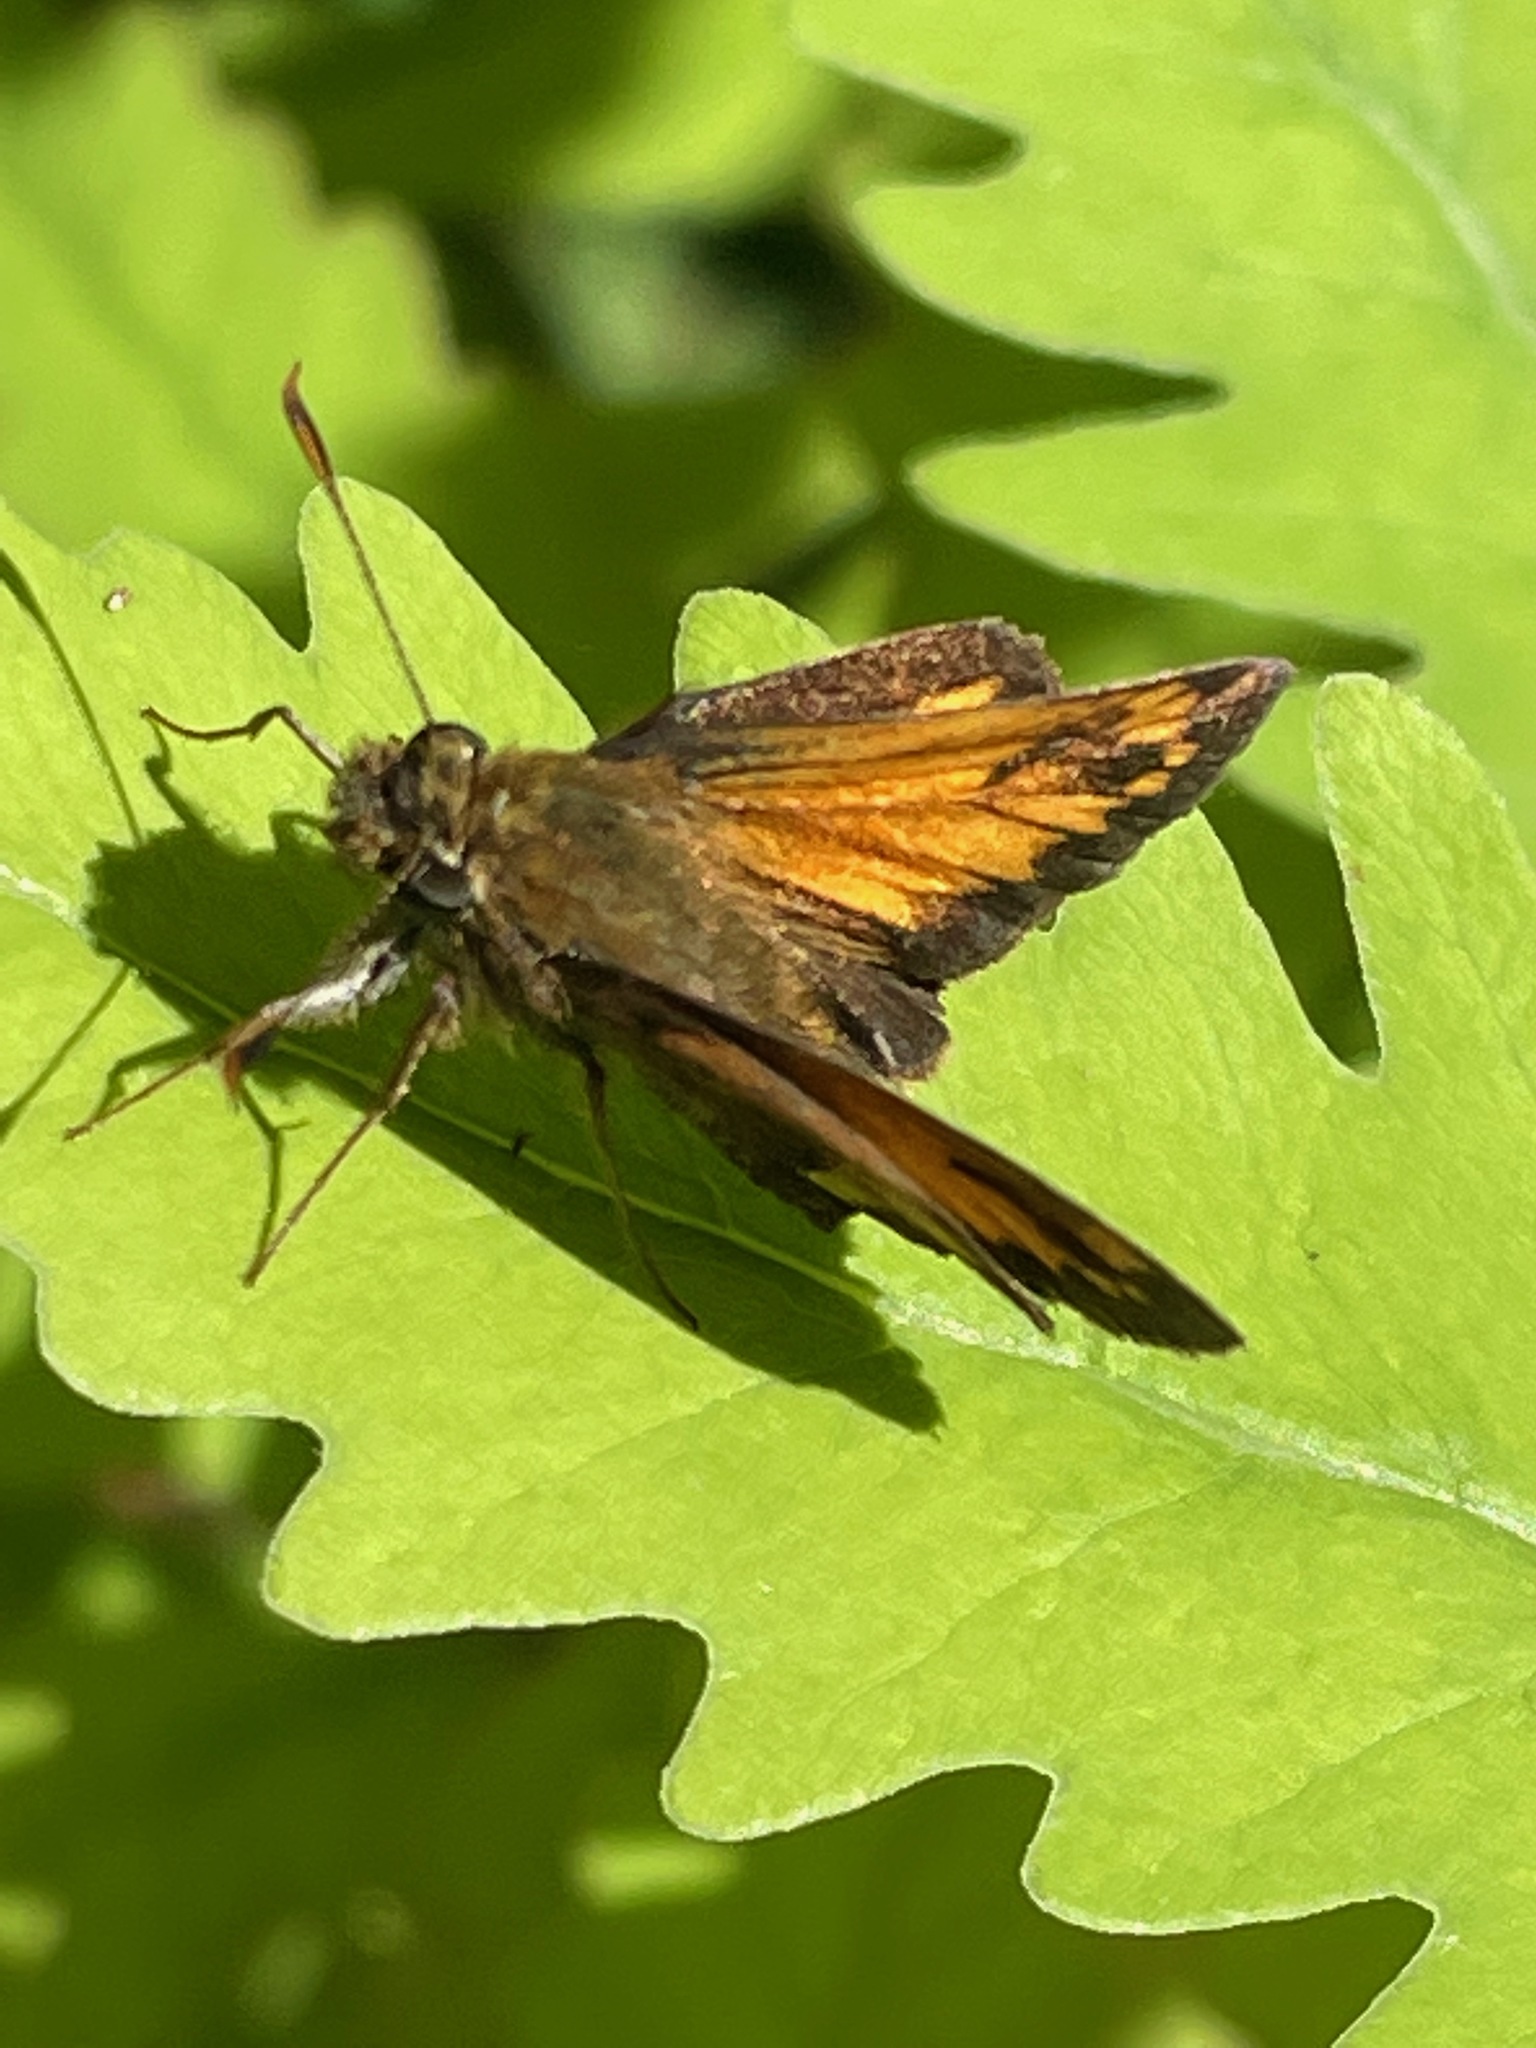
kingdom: Animalia
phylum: Arthropoda
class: Insecta
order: Lepidoptera
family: Hesperiidae
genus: Lon
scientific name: Lon hobomok
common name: Hobomok skipper
